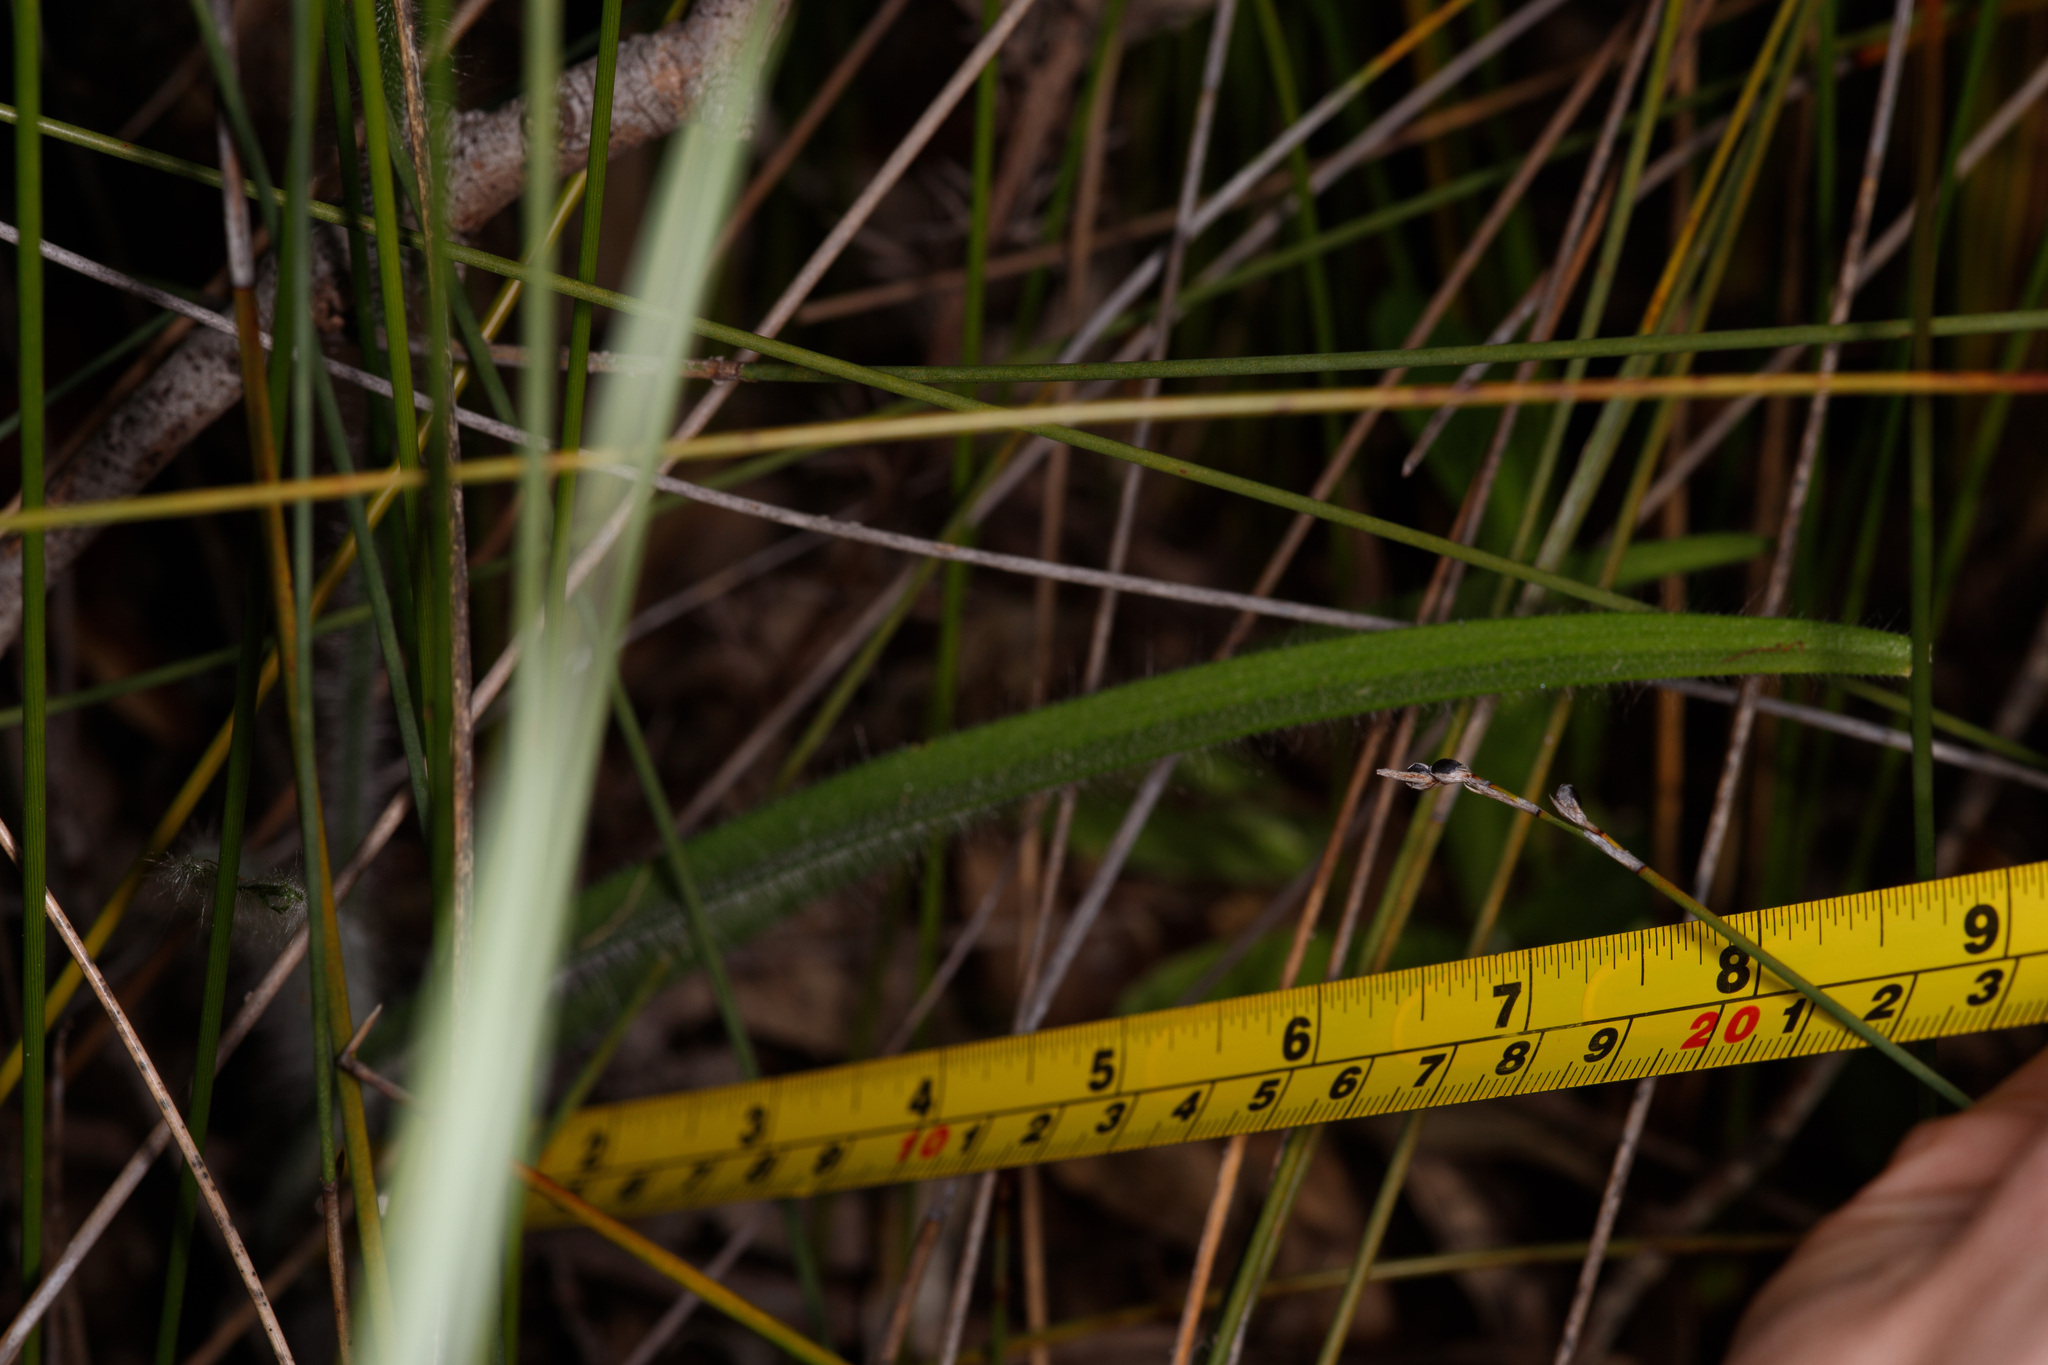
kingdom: Plantae
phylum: Tracheophyta
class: Liliopsida
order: Asparagales
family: Orchidaceae
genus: Caladenia
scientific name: Caladenia pectinata
